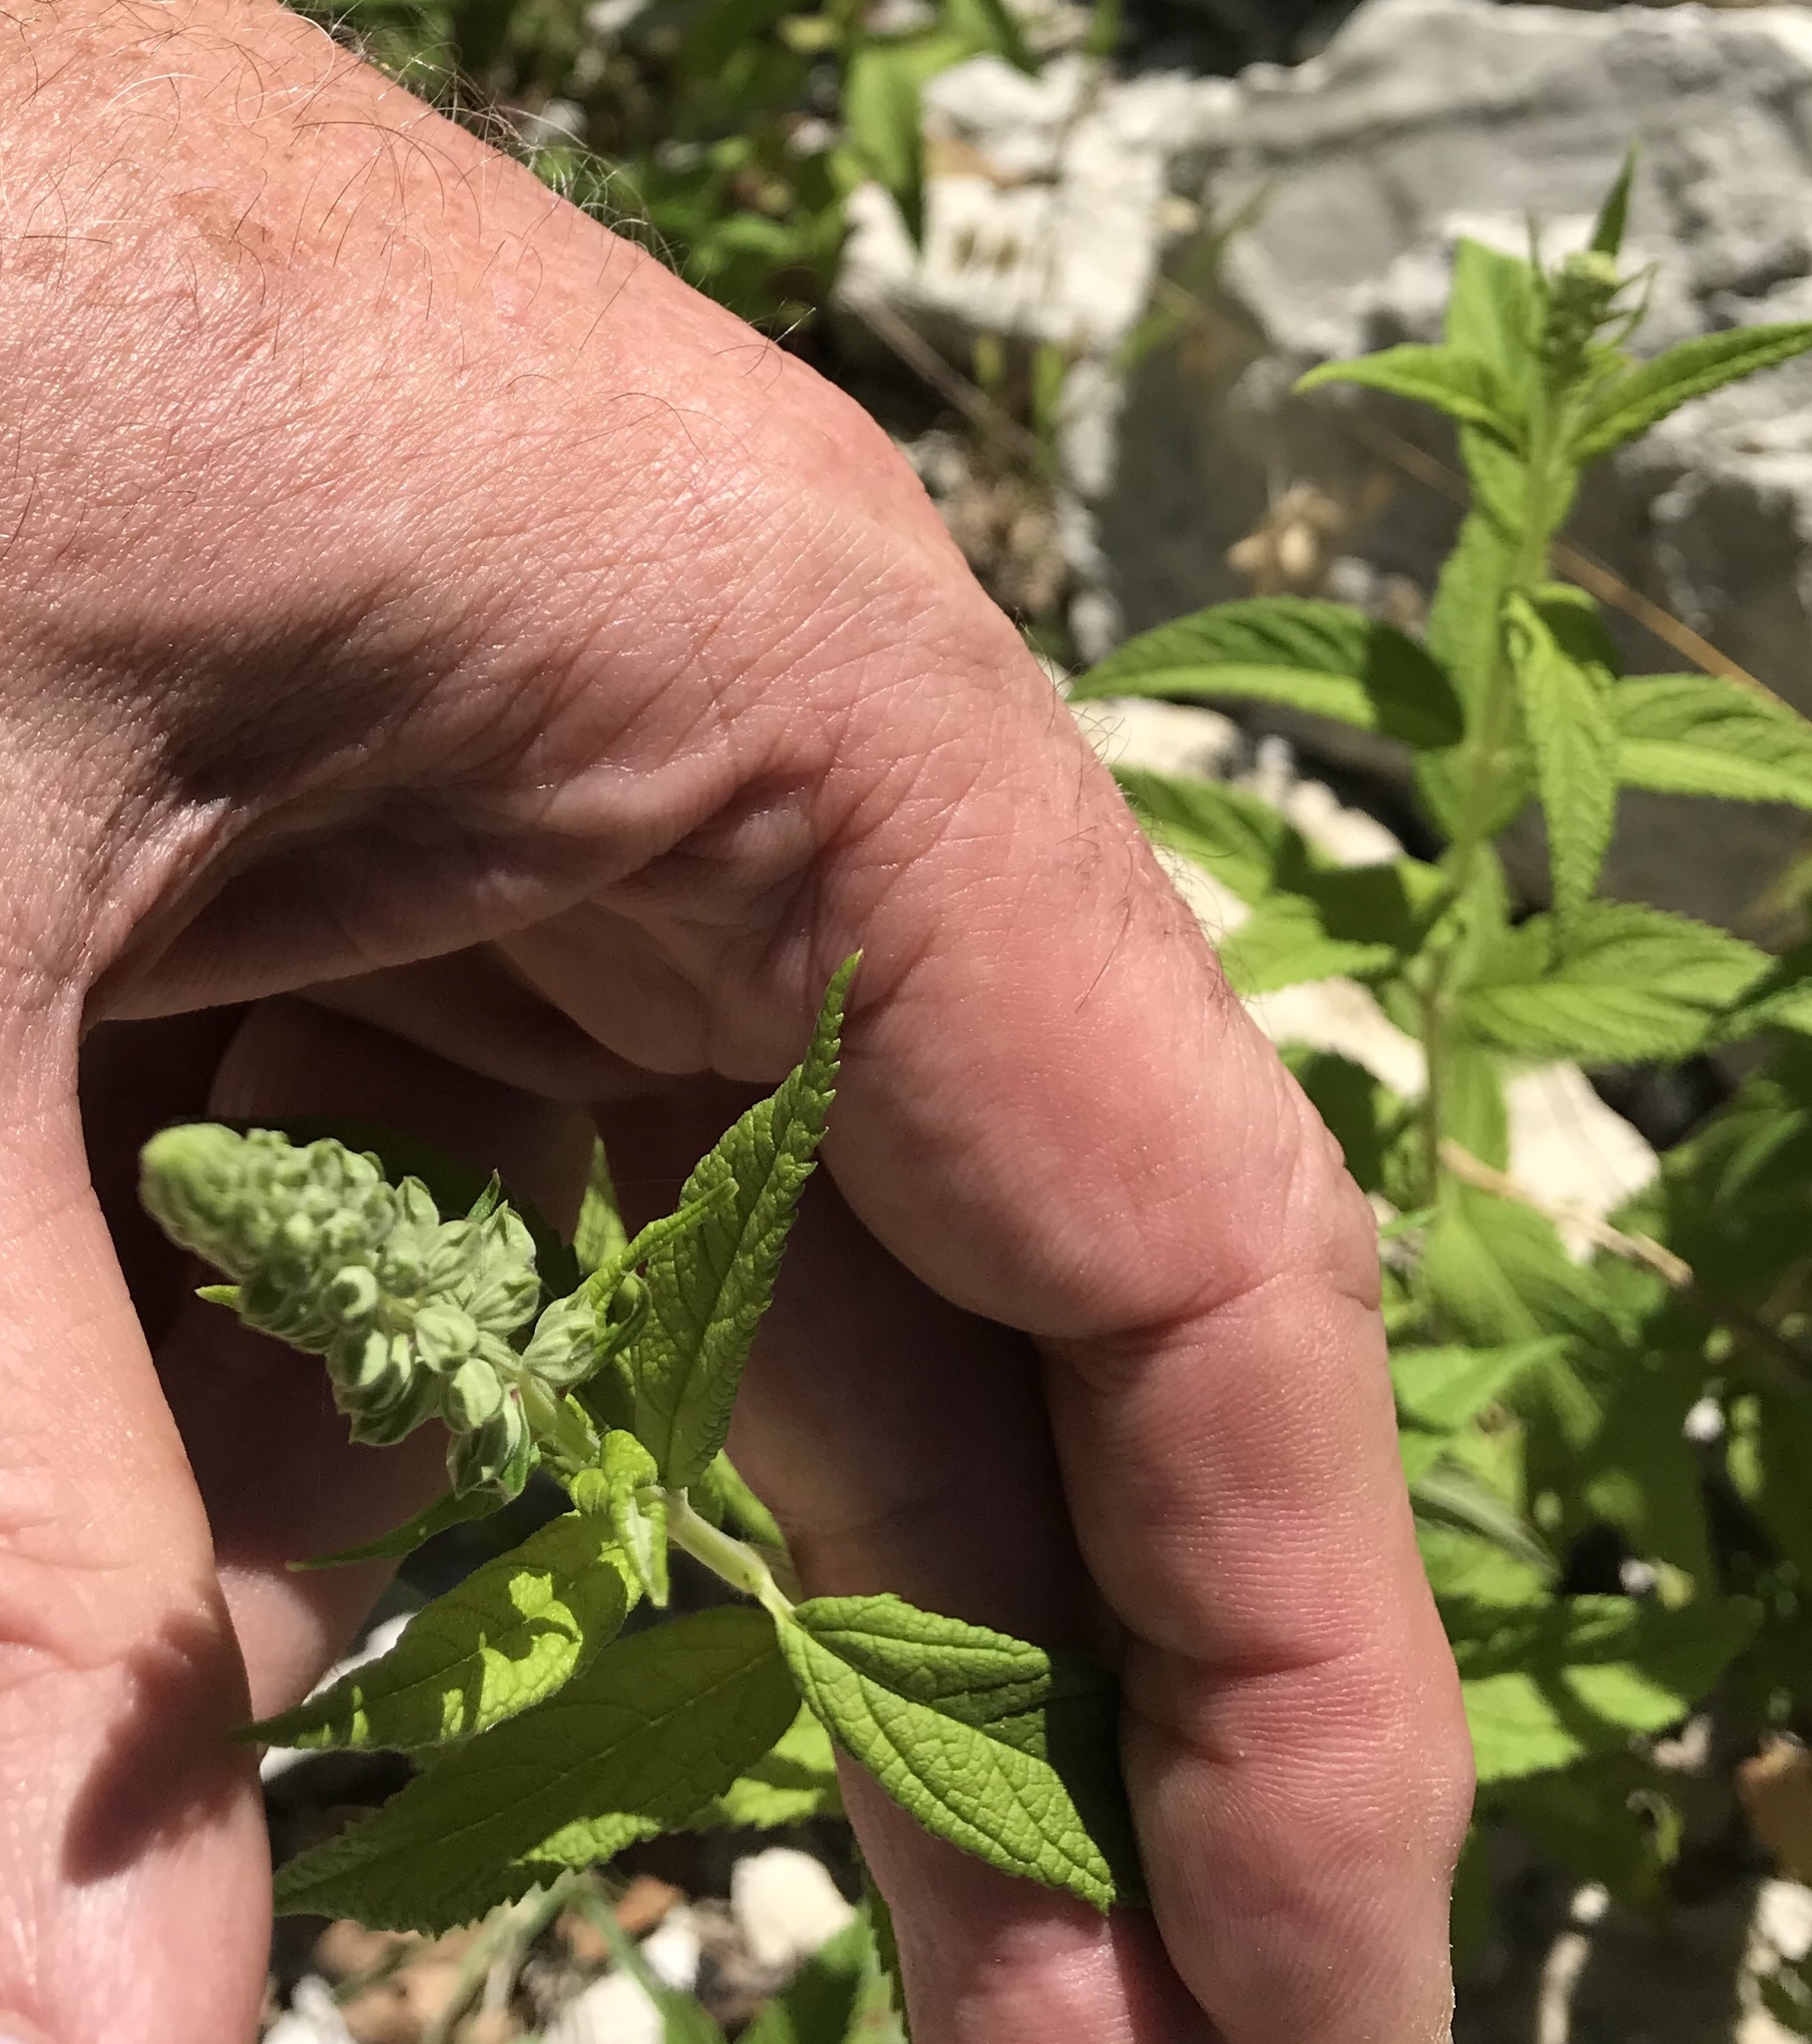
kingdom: Plantae
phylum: Tracheophyta
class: Magnoliopsida
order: Lamiales
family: Lamiaceae
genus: Teucrium
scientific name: Teucrium canadense
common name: American germander
